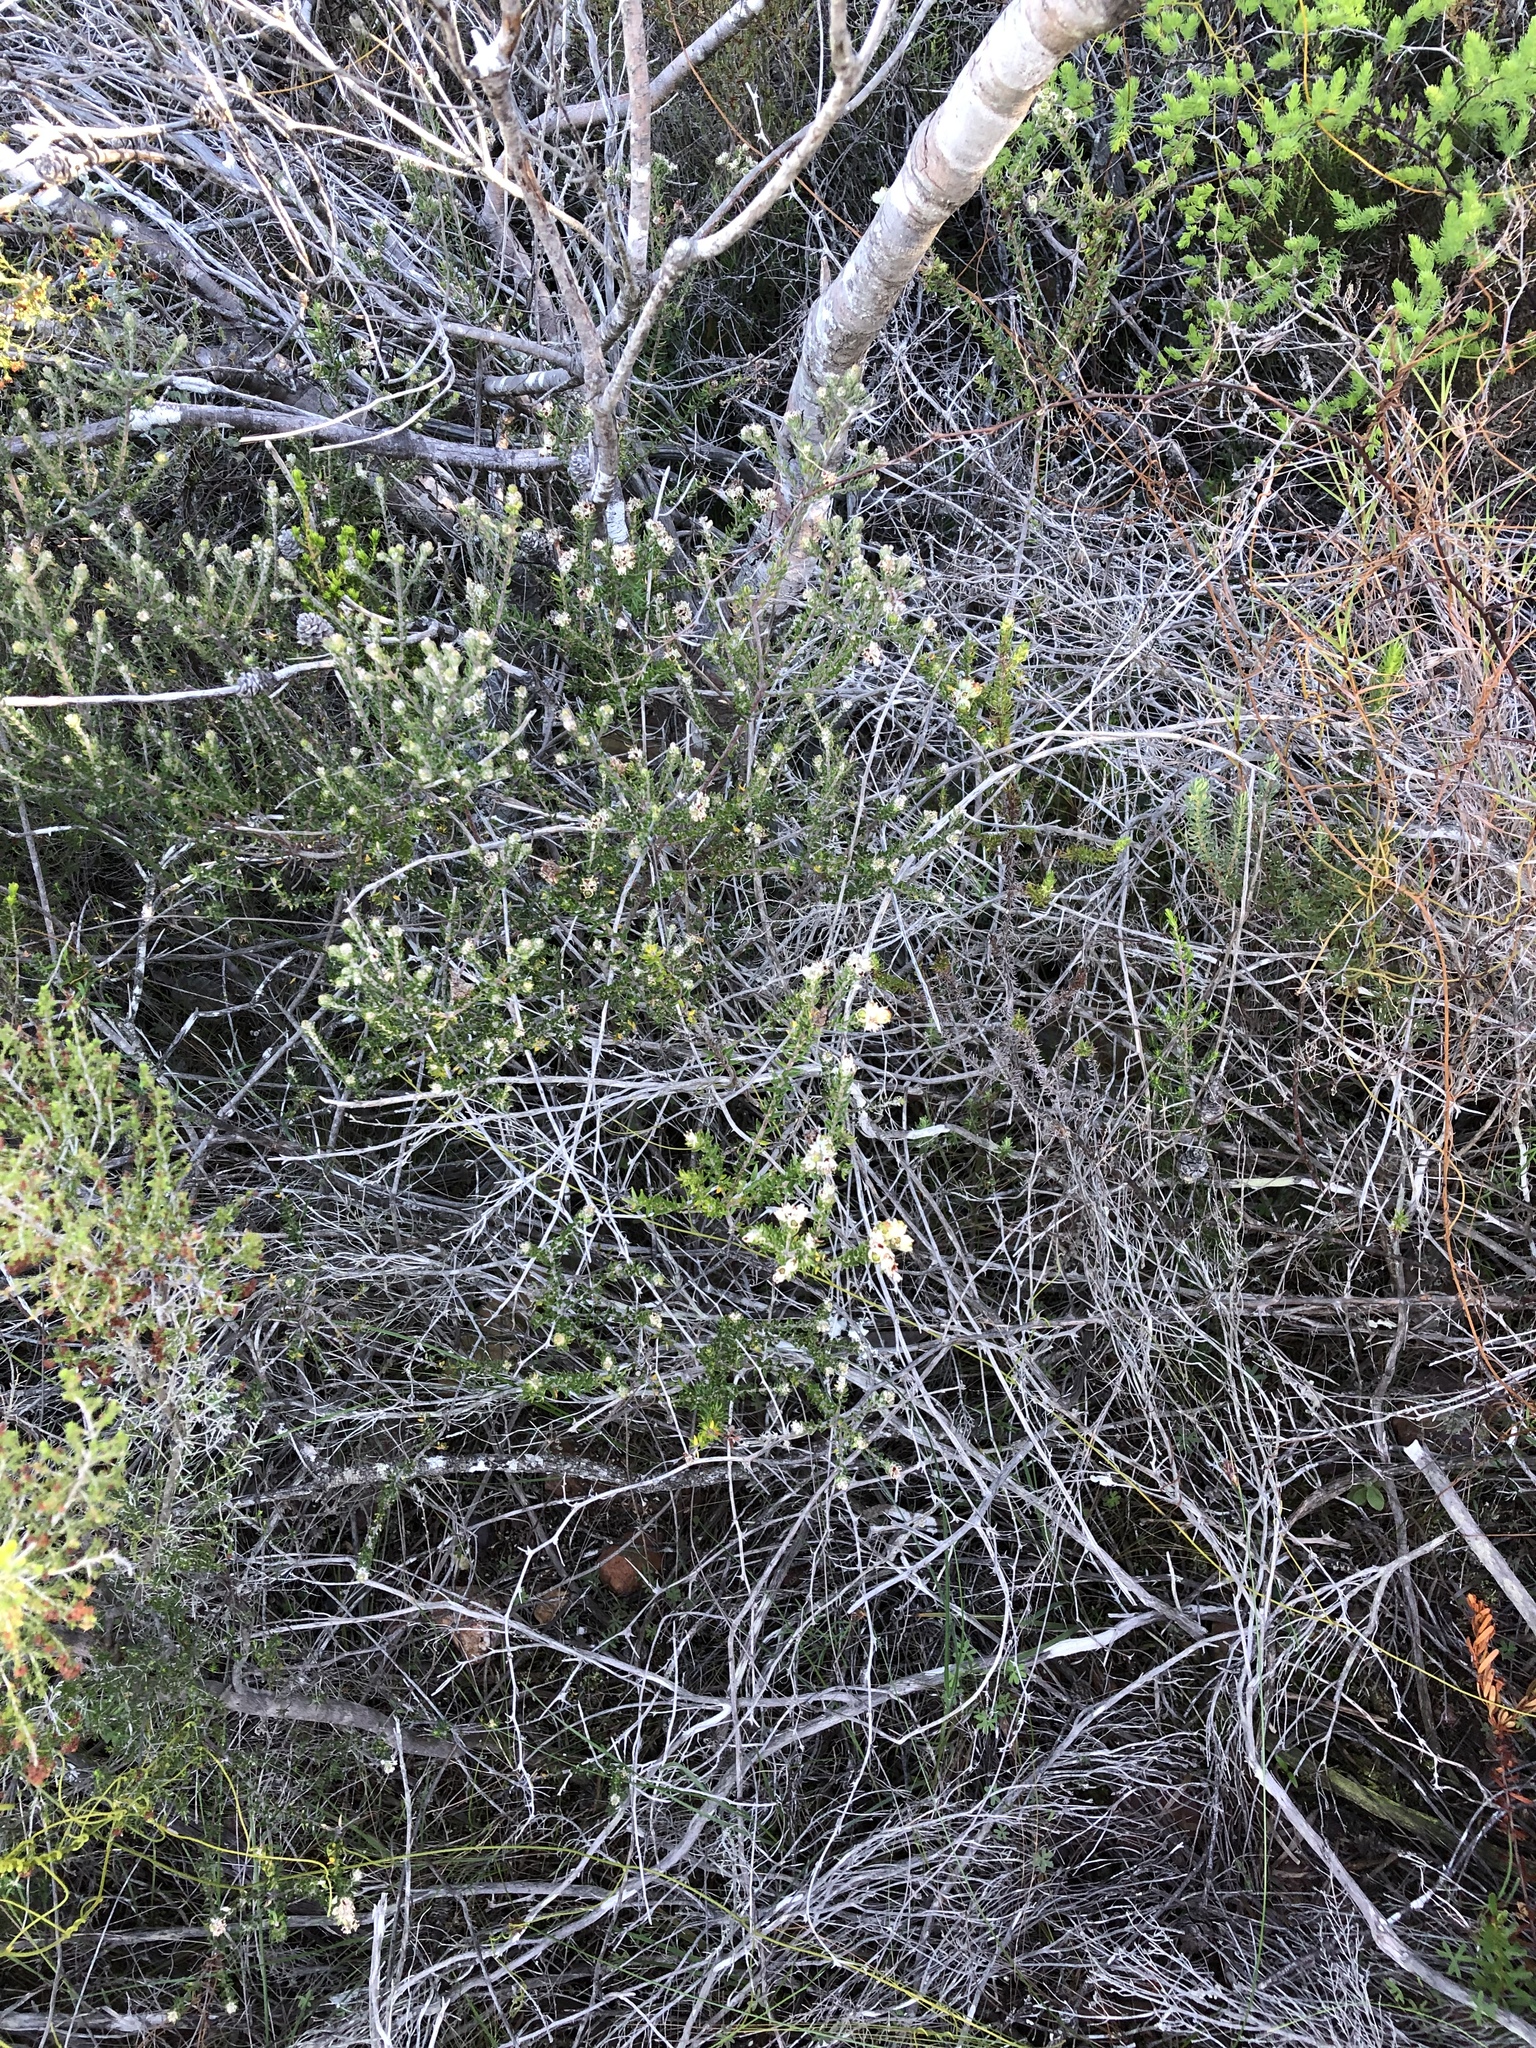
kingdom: Plantae
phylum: Tracheophyta
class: Magnoliopsida
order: Rosales
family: Rhamnaceae
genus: Phylica
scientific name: Phylica purpurea
